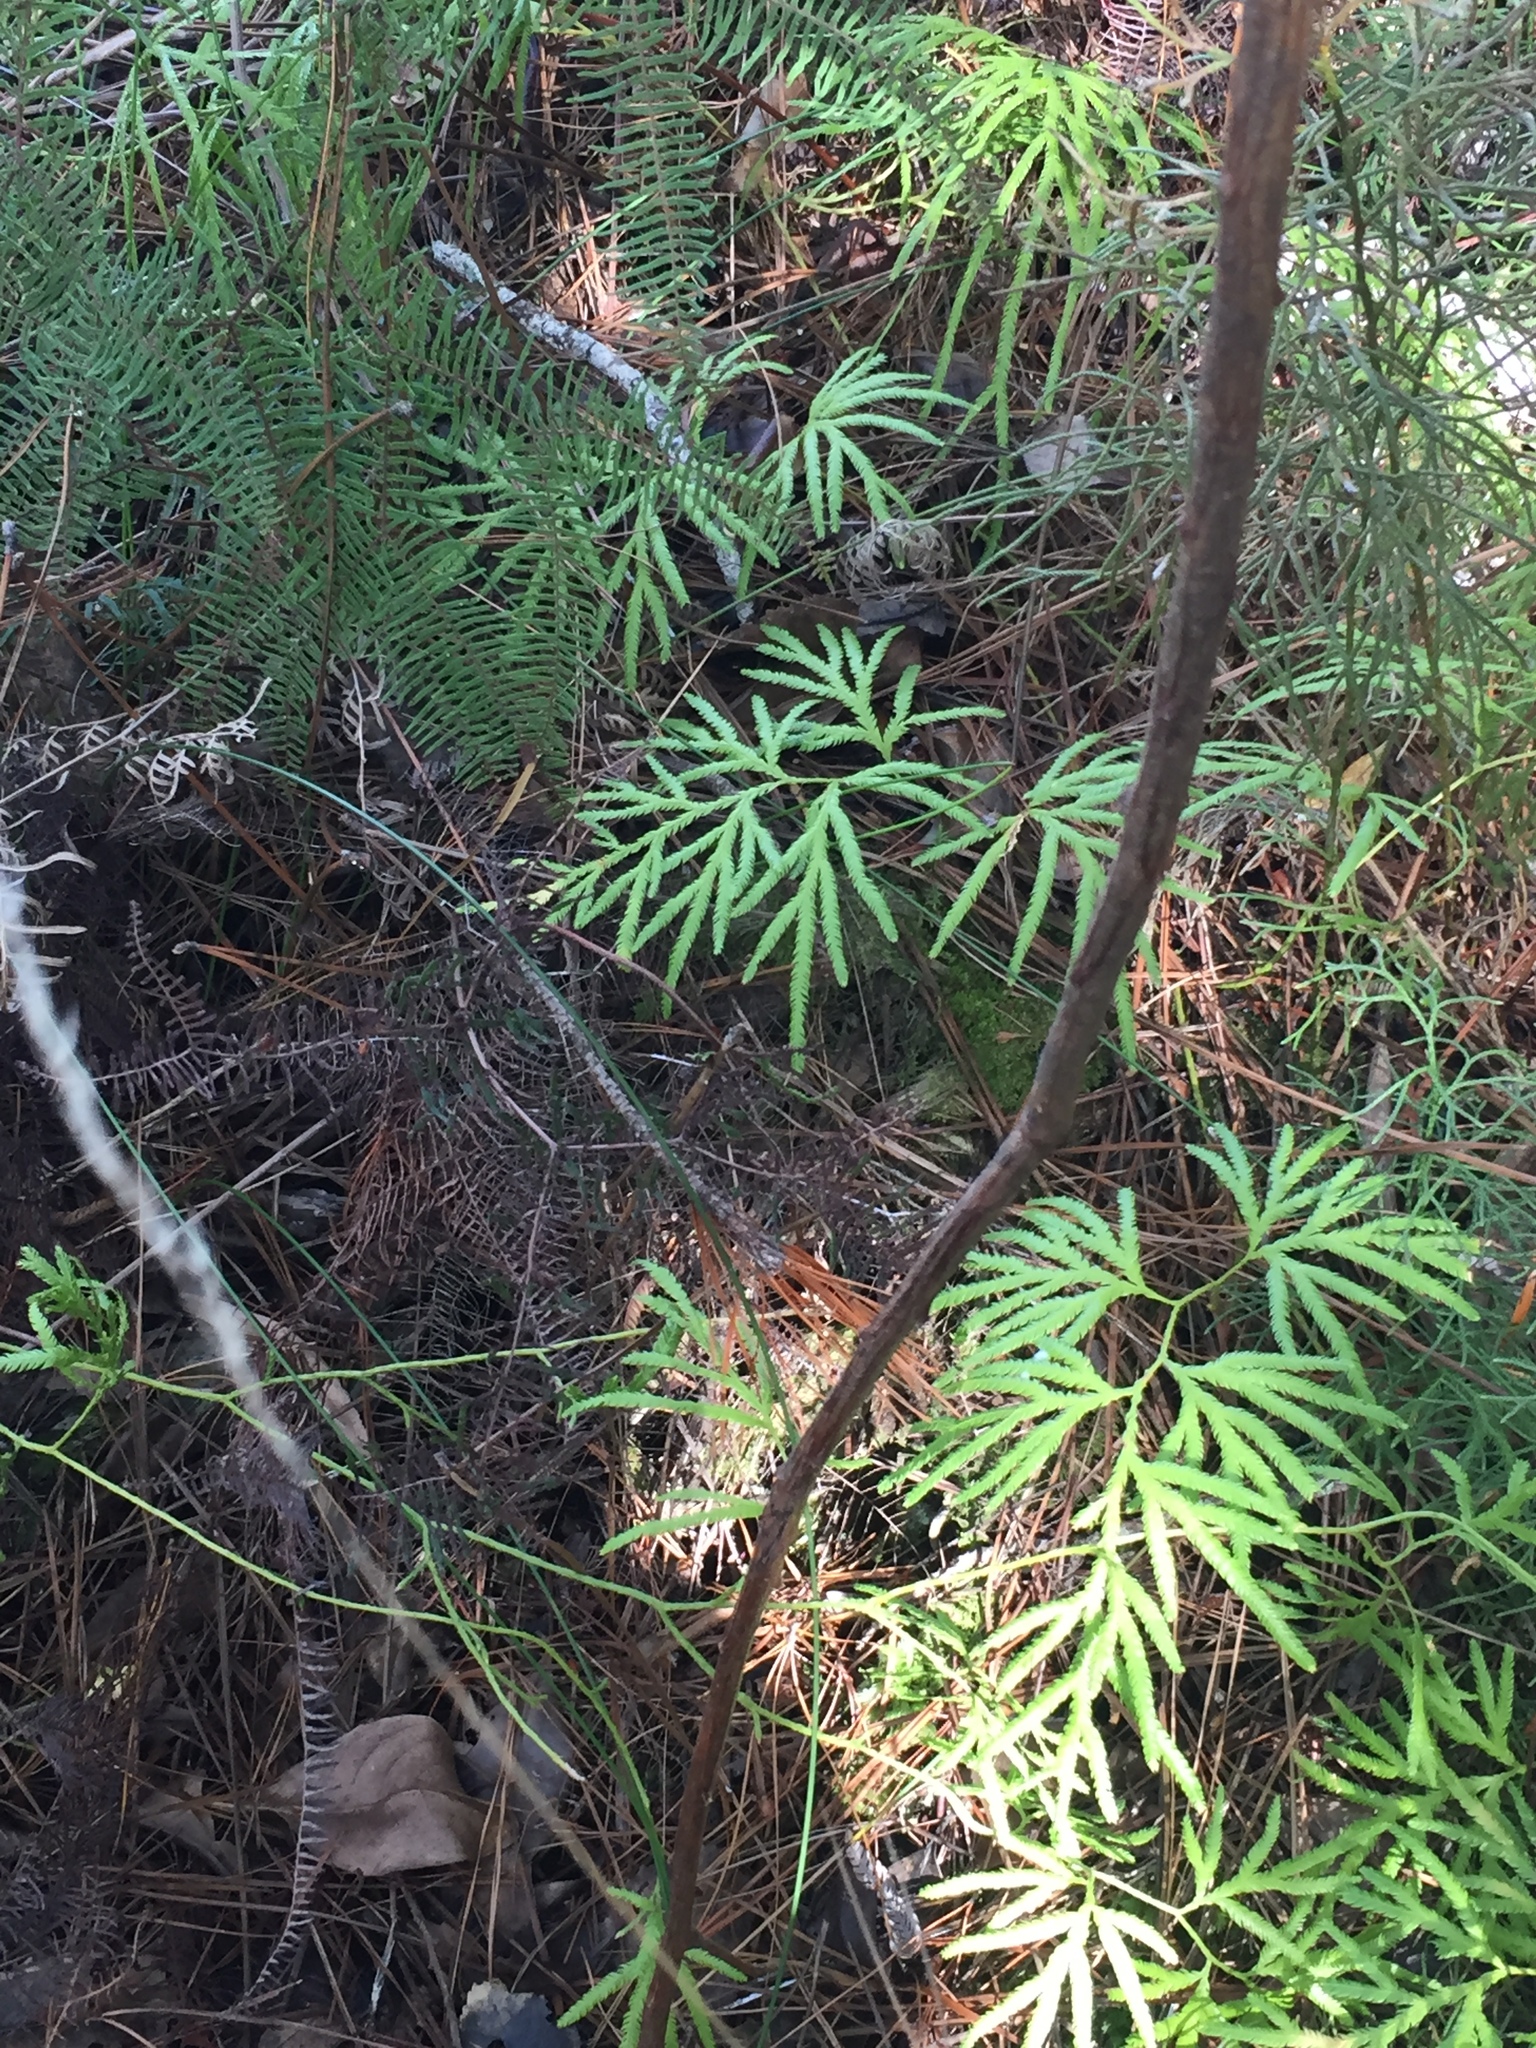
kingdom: Plantae
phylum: Tracheophyta
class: Lycopodiopsida
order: Lycopodiales
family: Lycopodiaceae
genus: Lycopodium
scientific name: Lycopodium volubile
